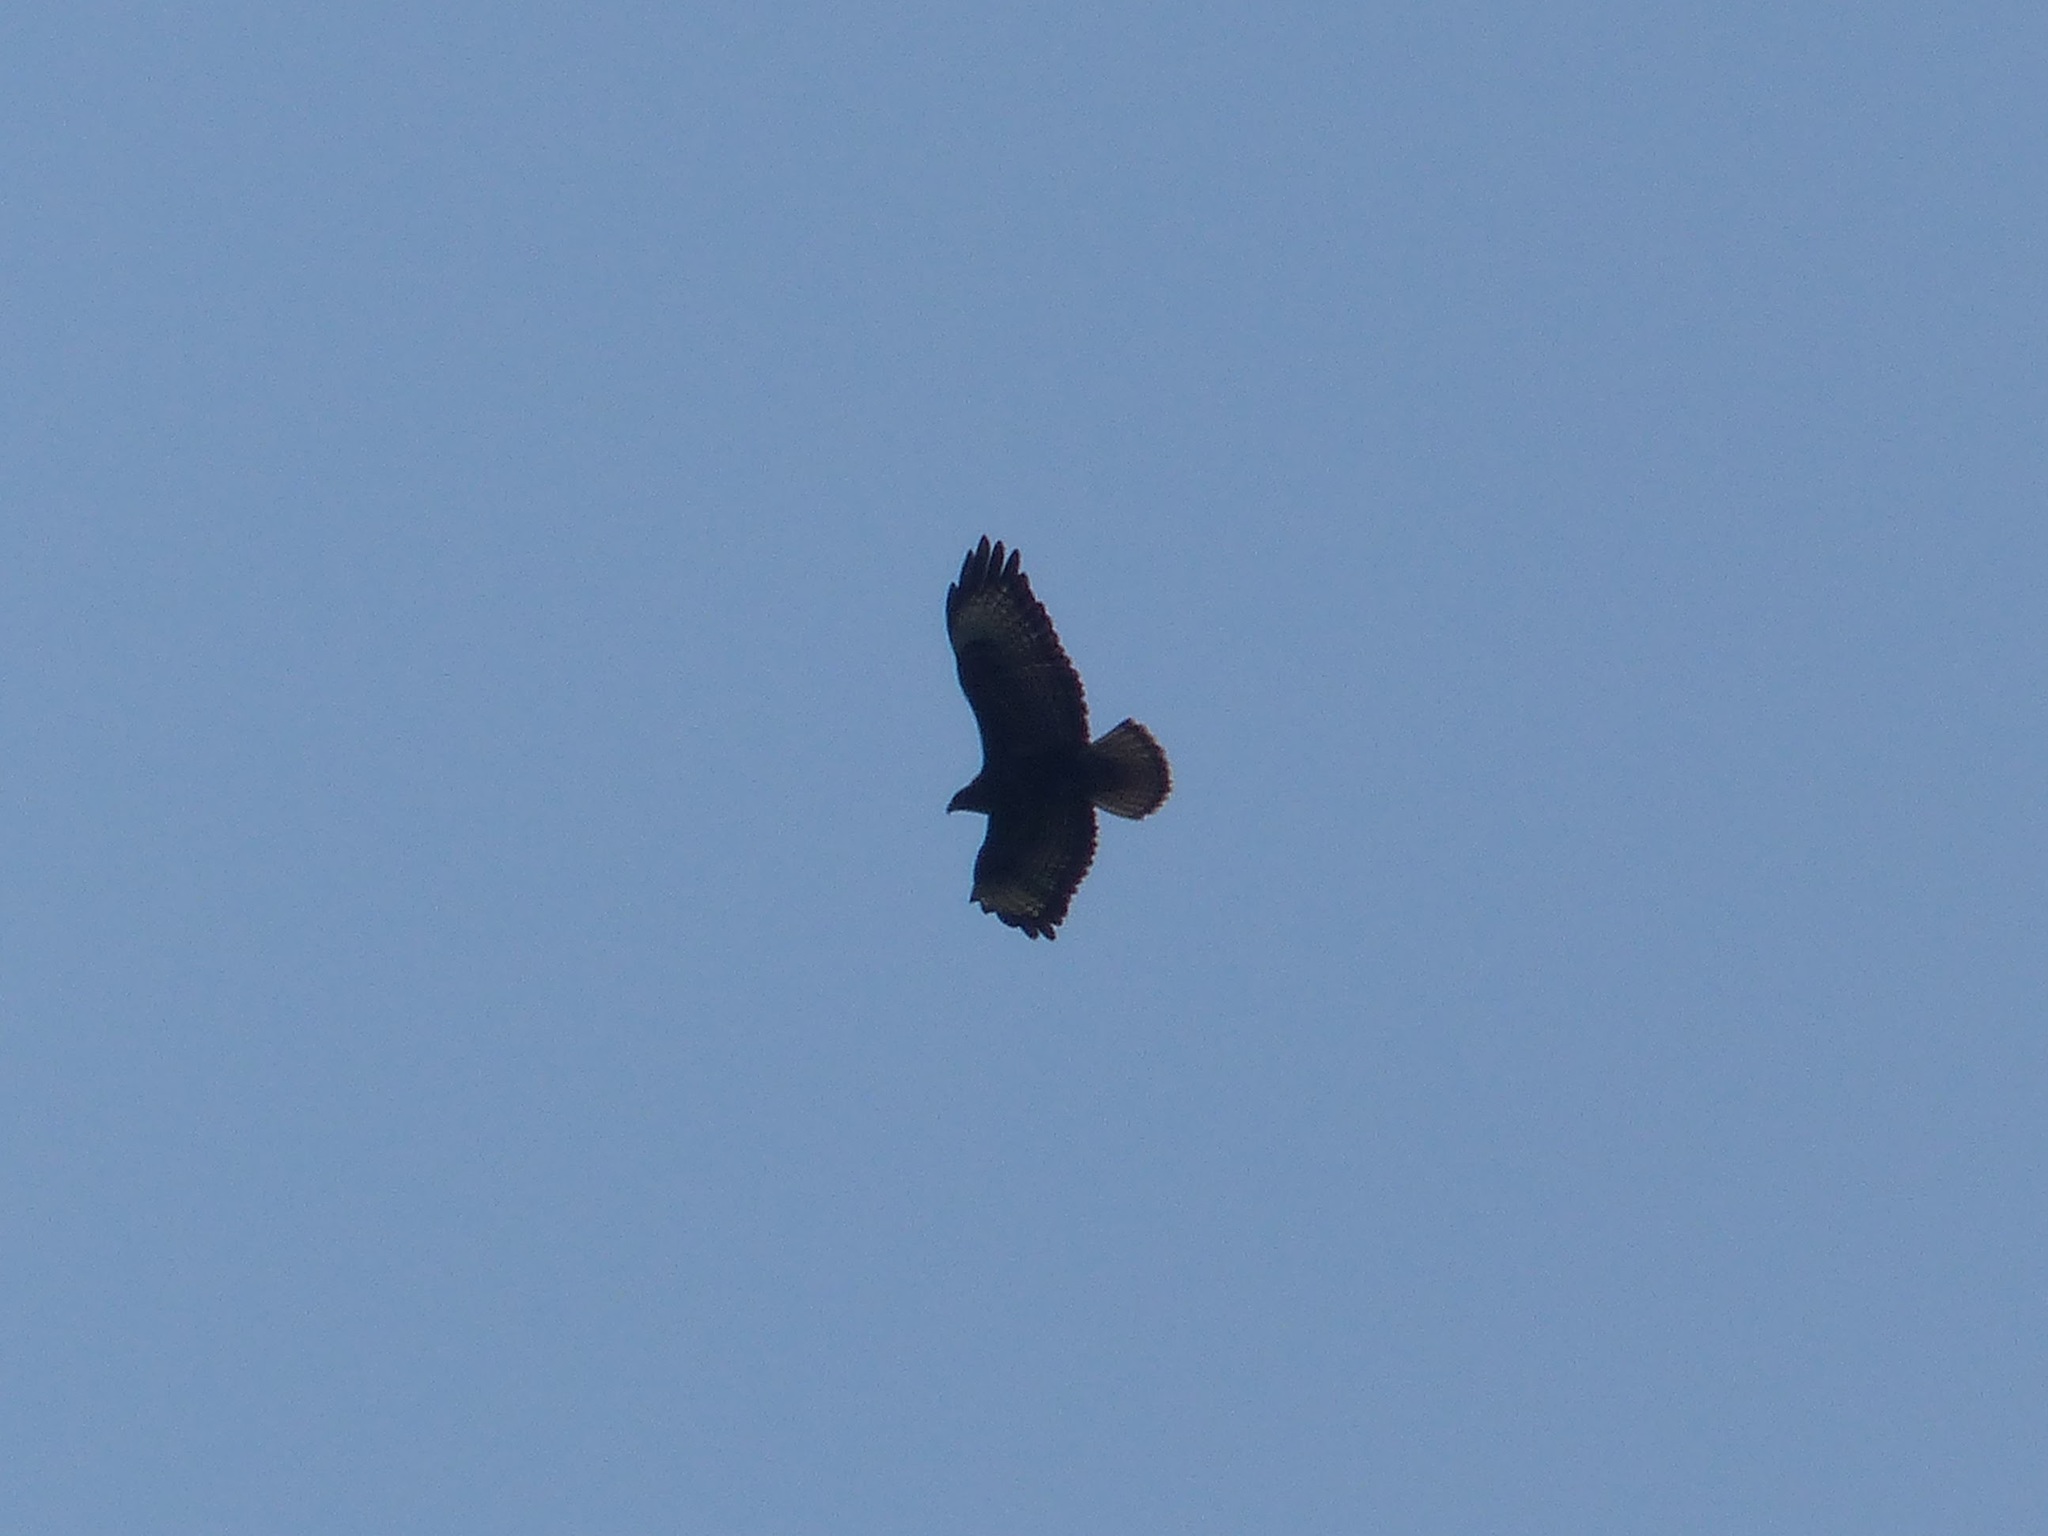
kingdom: Animalia
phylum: Chordata
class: Aves
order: Accipitriformes
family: Accipitridae
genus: Buteo
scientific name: Buteo buteo
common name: Common buzzard
